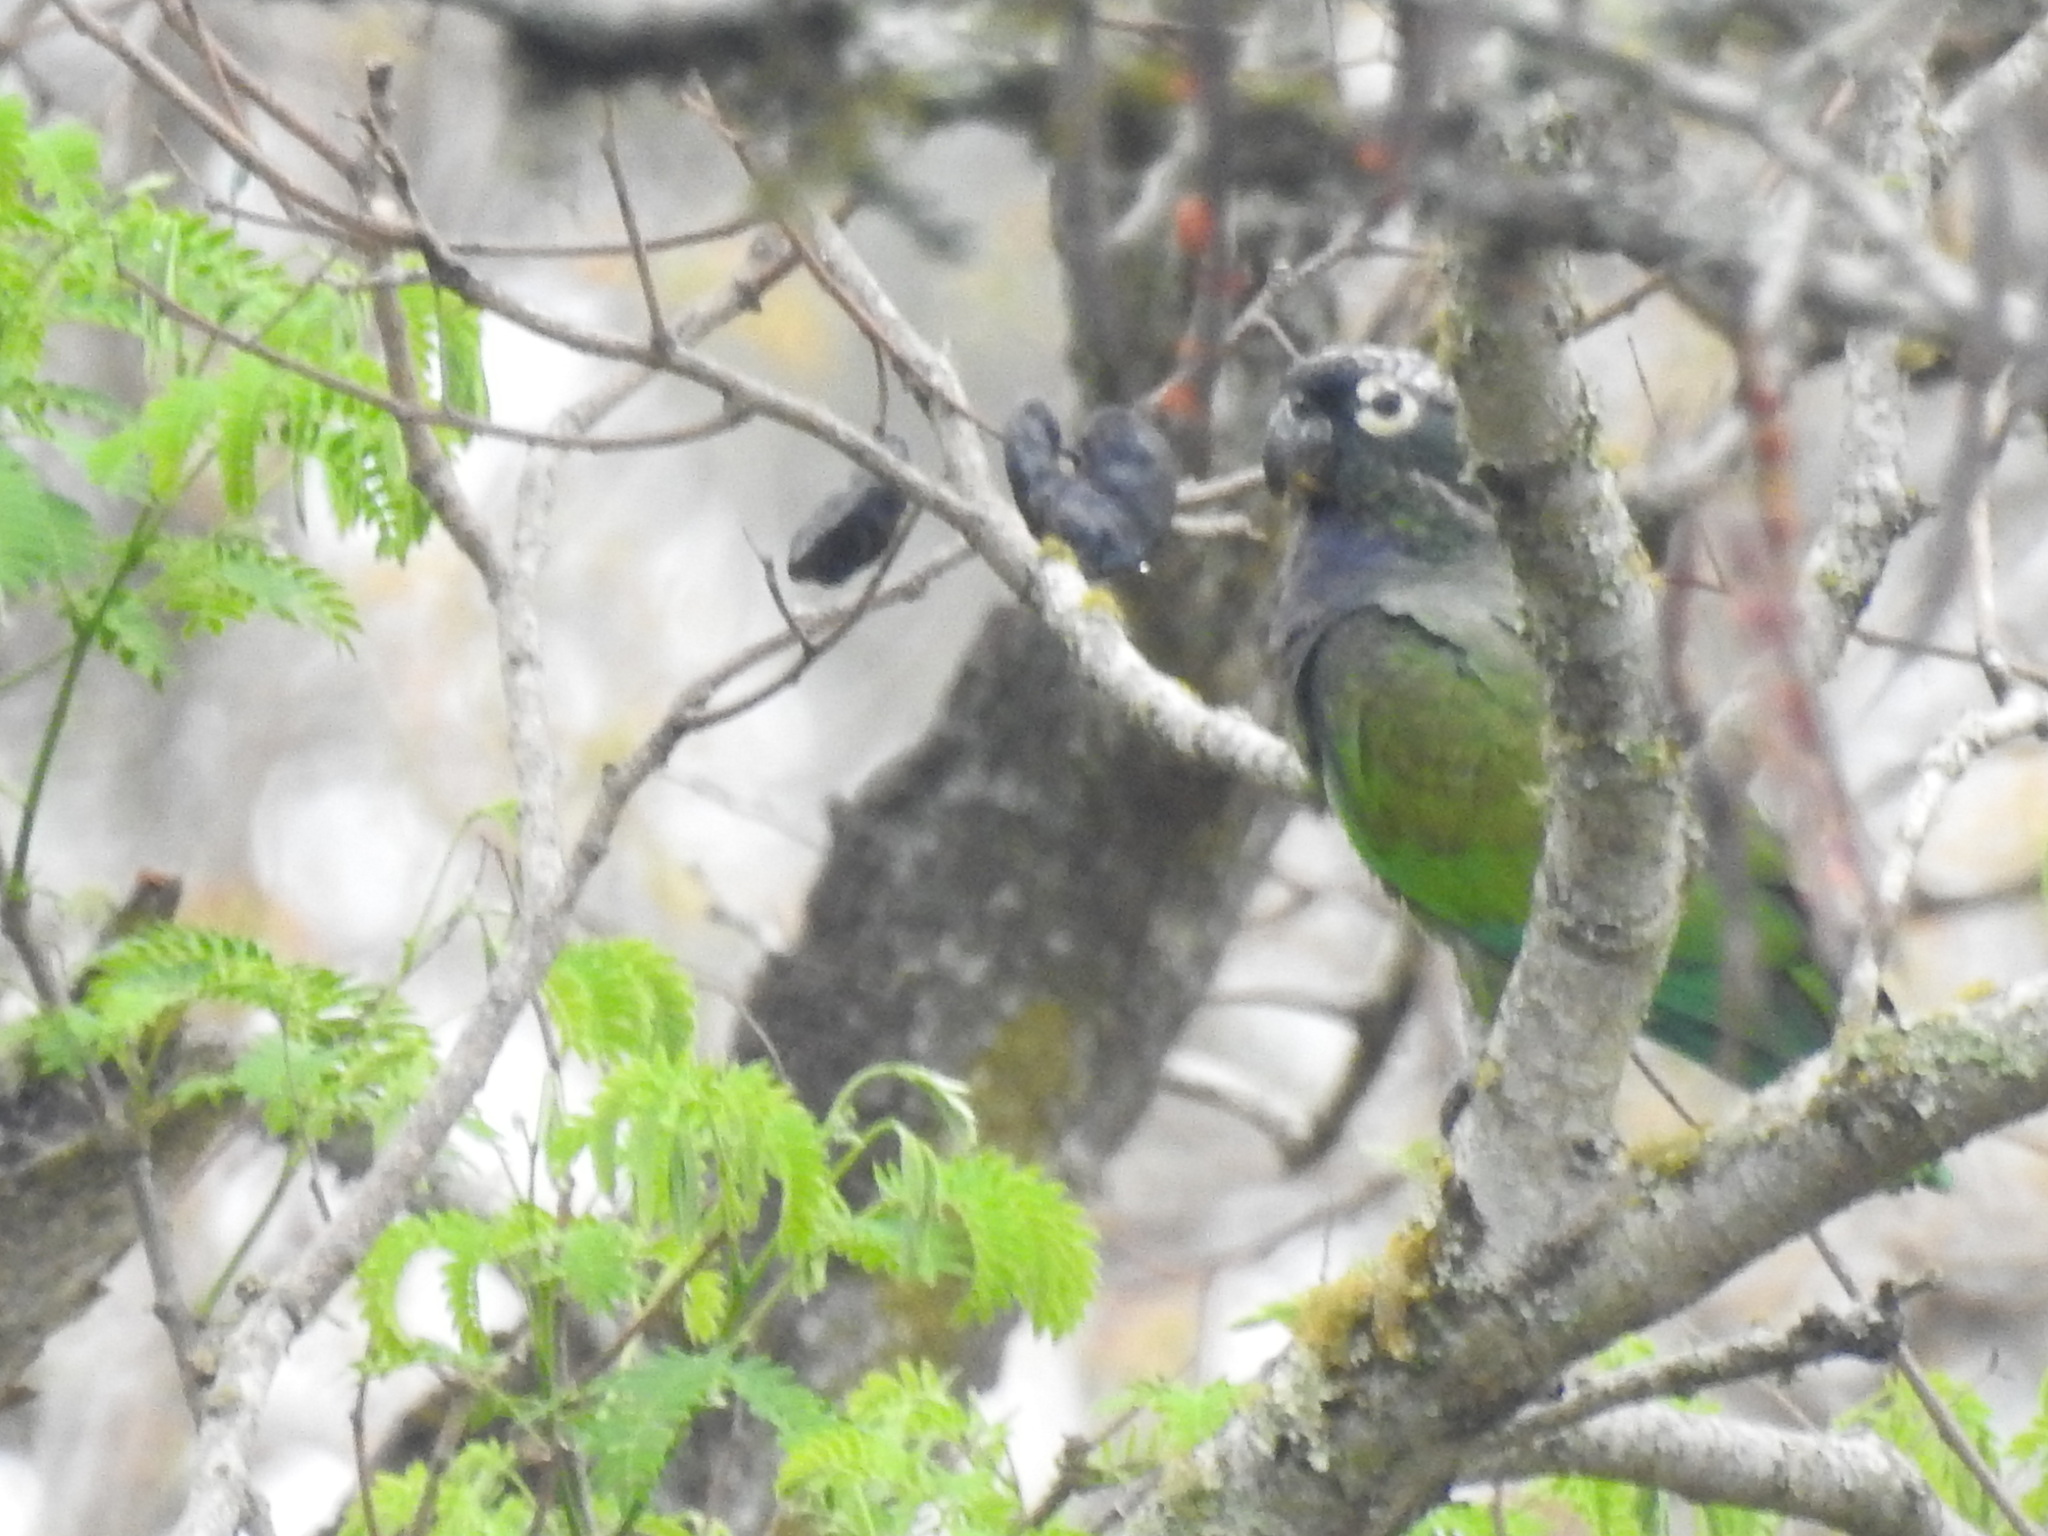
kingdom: Animalia
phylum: Chordata
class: Aves
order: Psittaciformes
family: Psittacidae
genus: Pionus
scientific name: Pionus maximiliani
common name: Scaly-headed parrot
